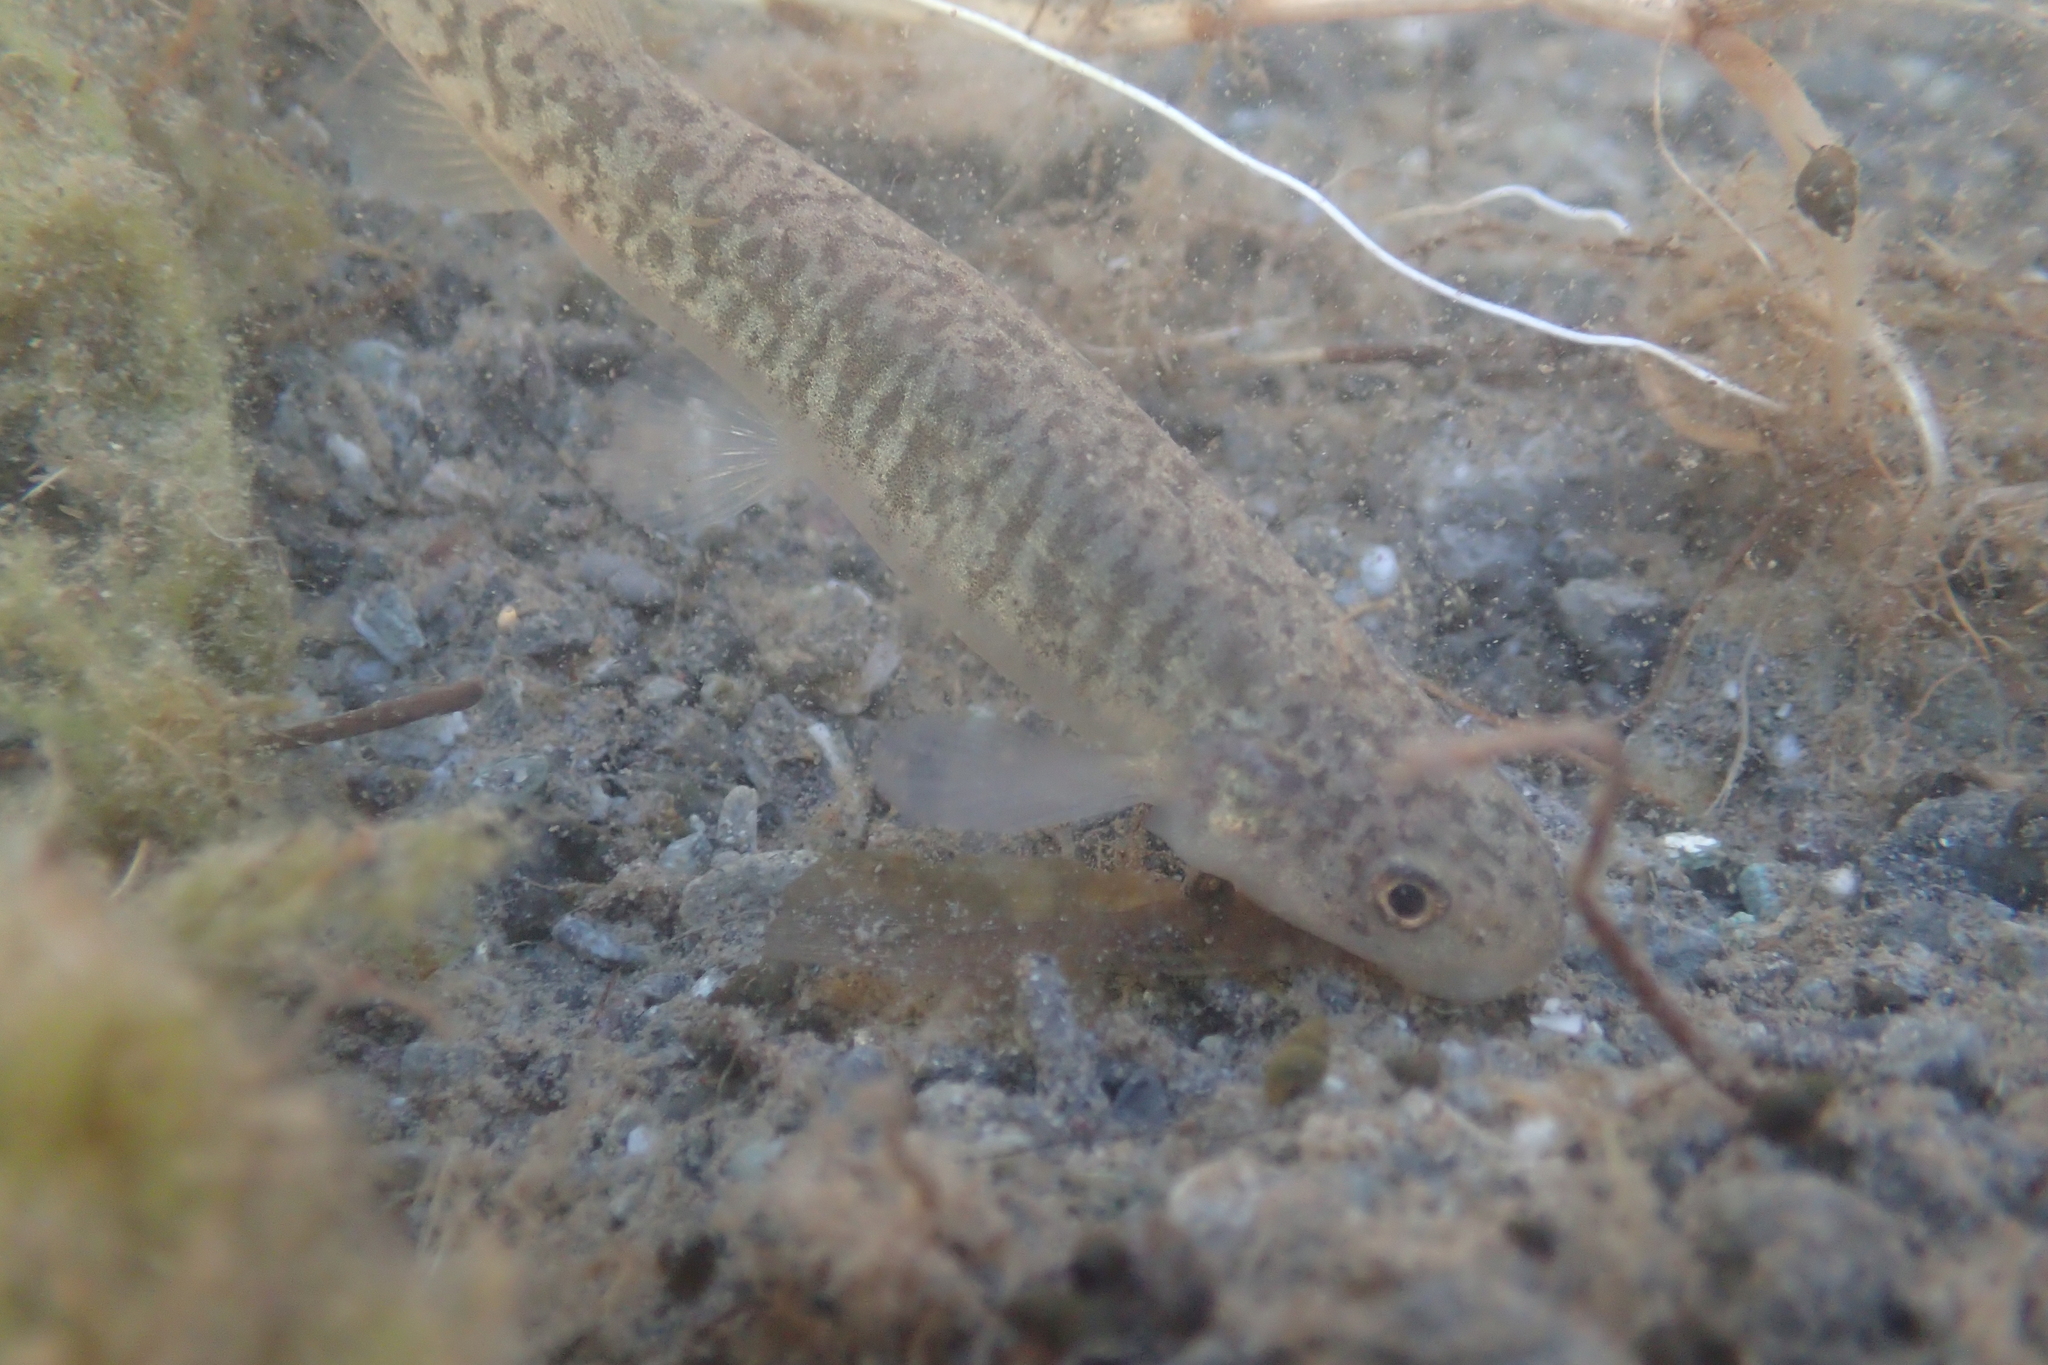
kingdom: Animalia
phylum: Chordata
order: Osmeriformes
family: Galaxiidae
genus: Galaxias
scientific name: Galaxias vulgaris
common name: Common river galaxias
